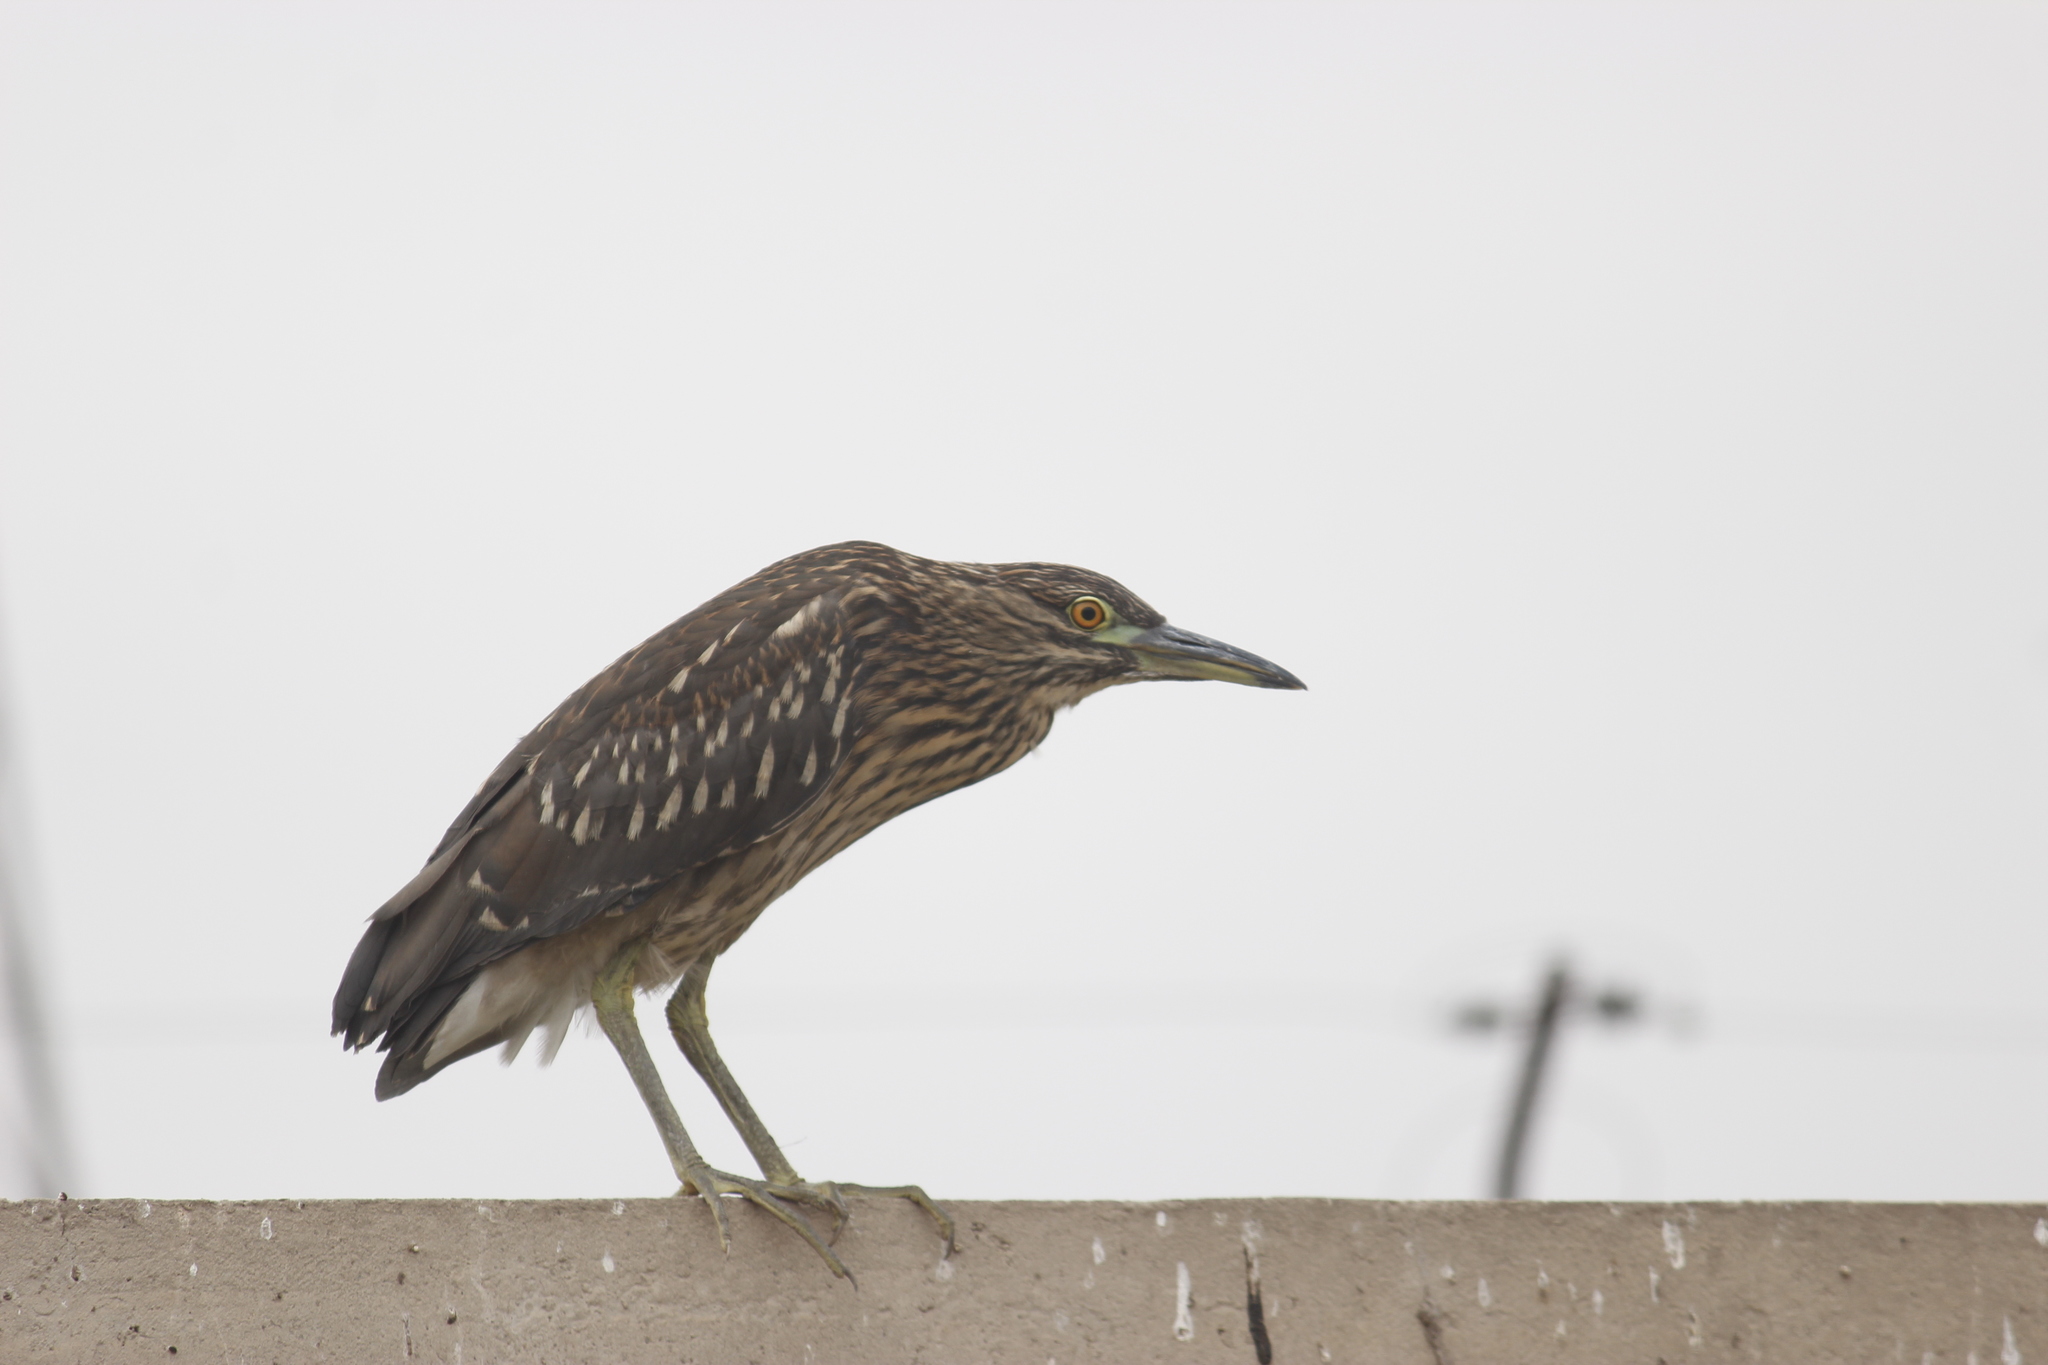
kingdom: Animalia
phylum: Chordata
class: Aves
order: Pelecaniformes
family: Ardeidae
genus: Nycticorax
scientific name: Nycticorax nycticorax
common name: Black-crowned night heron
